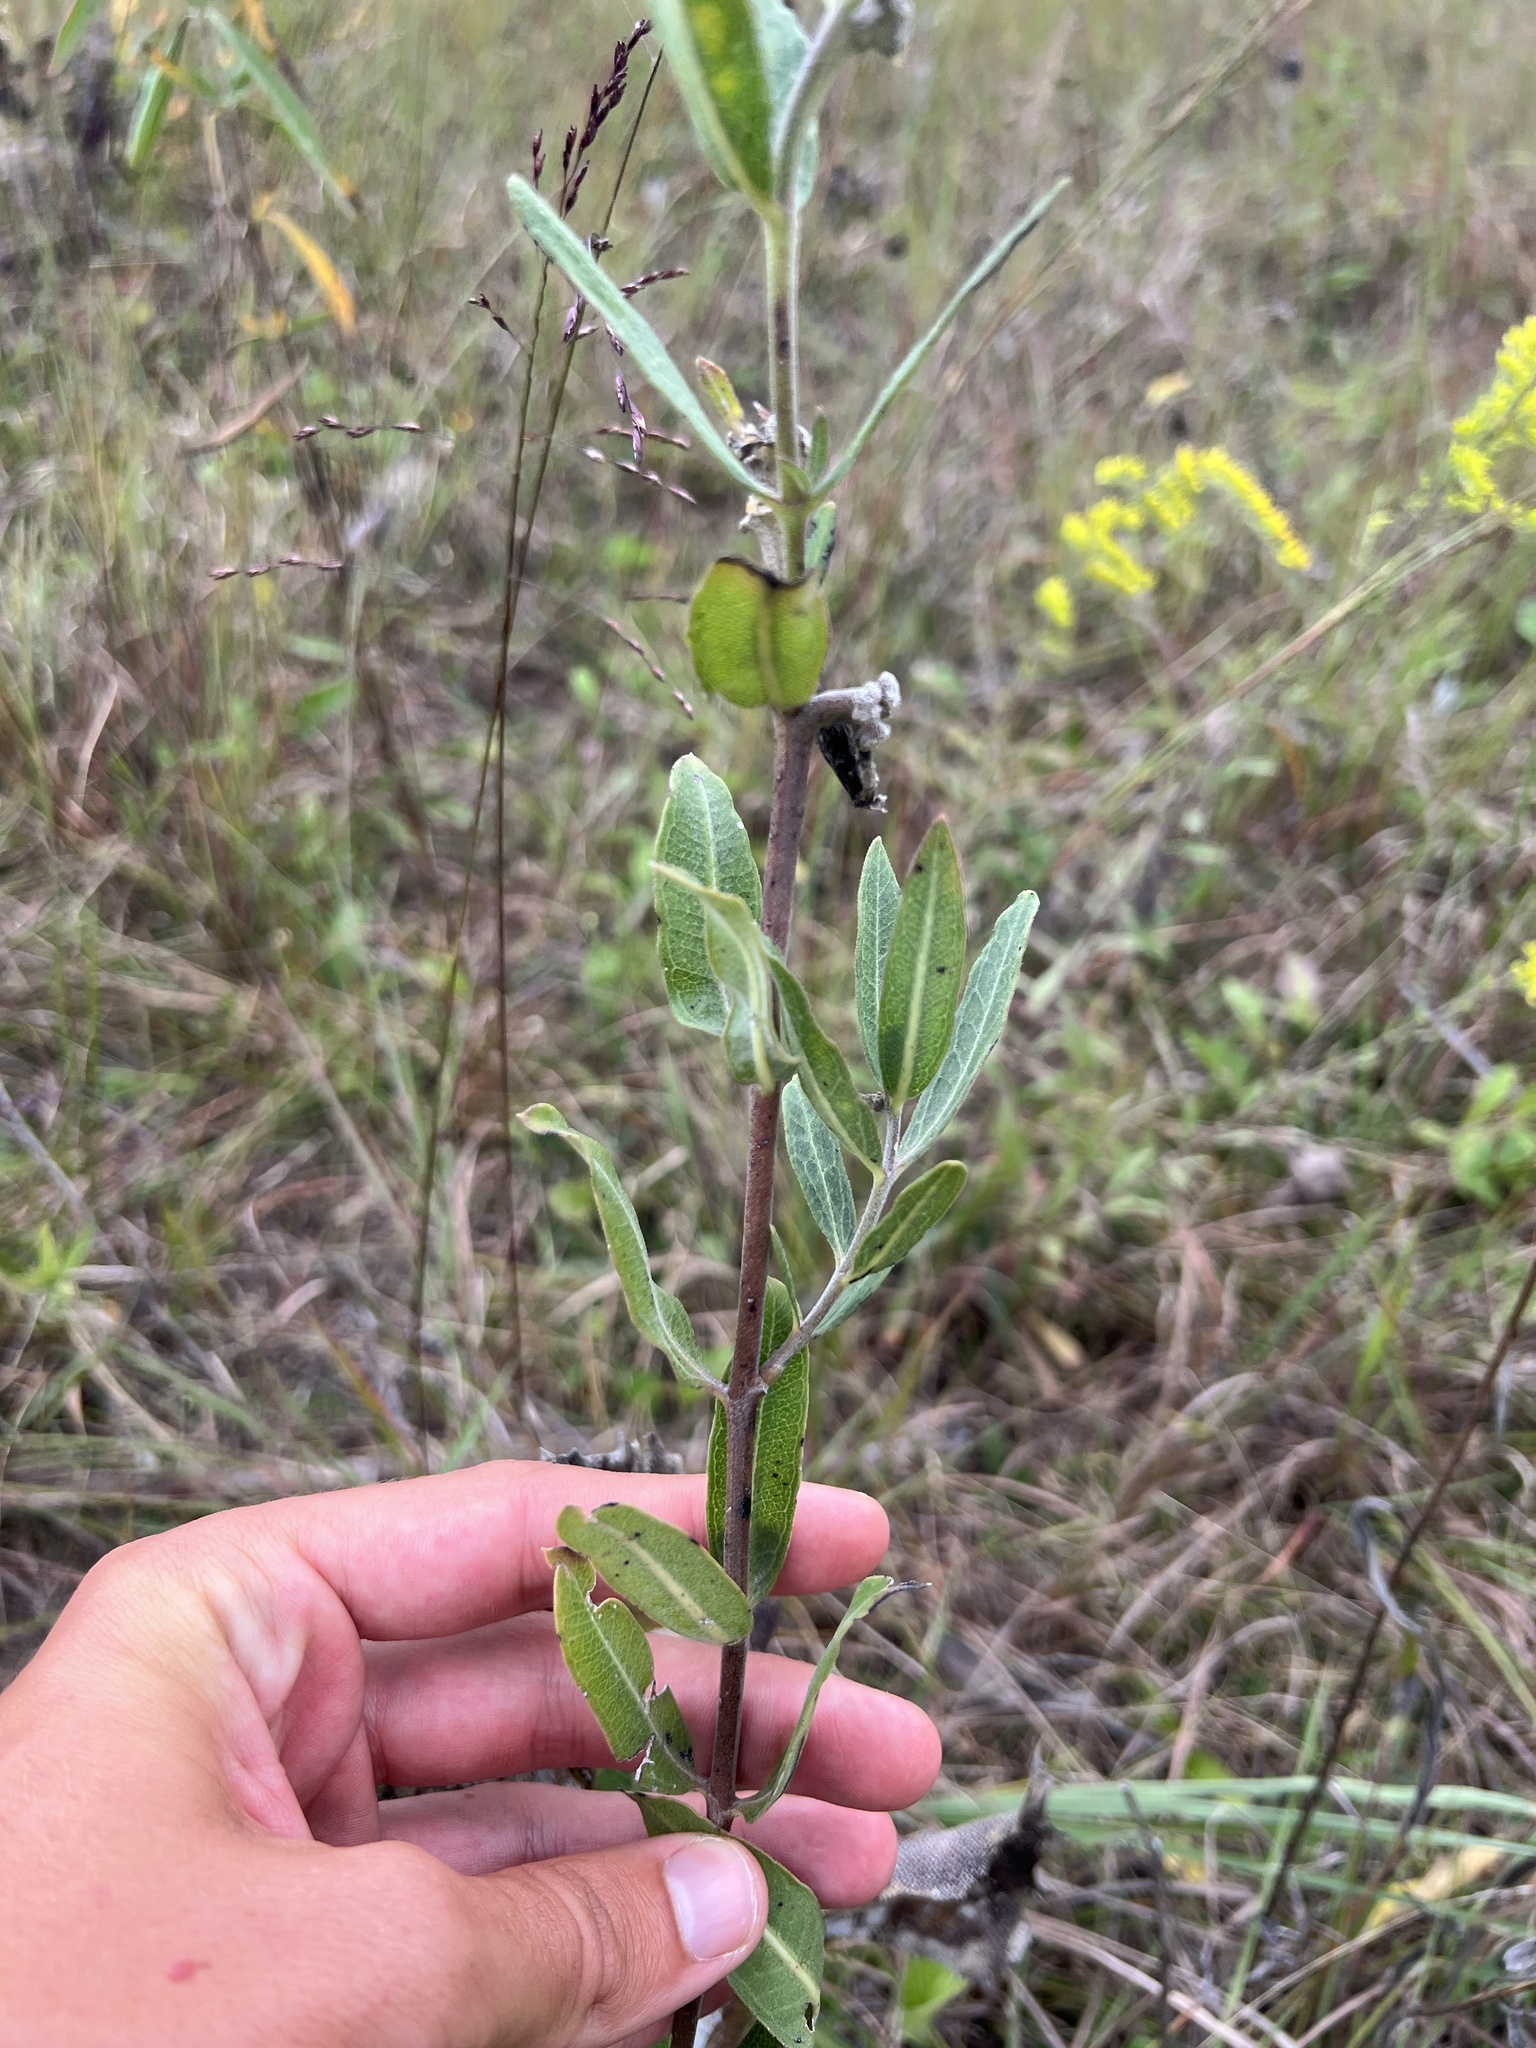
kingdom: Plantae
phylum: Tracheophyta
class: Magnoliopsida
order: Gentianales
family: Apocynaceae
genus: Asclepias
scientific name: Asclepias viridiflora
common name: Green comet milkweed
